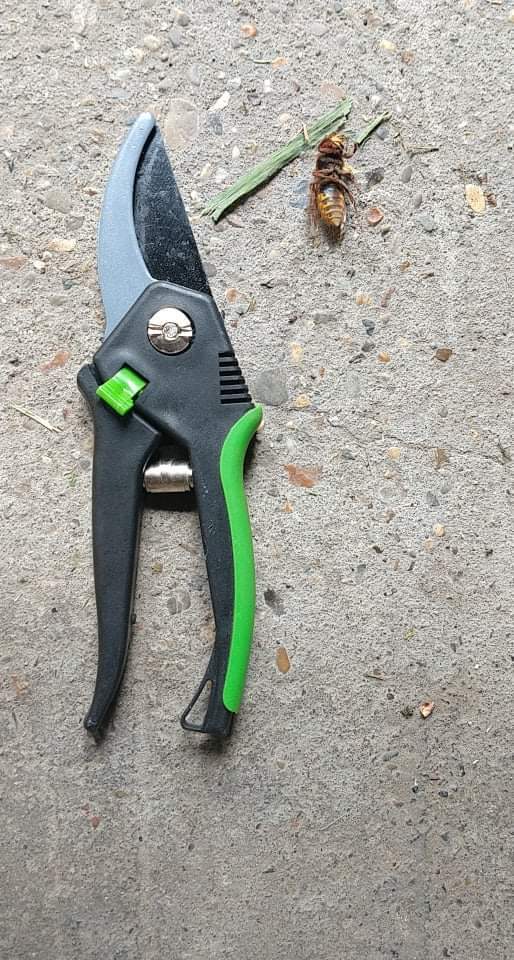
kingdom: Animalia
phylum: Arthropoda
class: Insecta
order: Hymenoptera
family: Vespidae
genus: Vespa
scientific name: Vespa crabro
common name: Hornet
